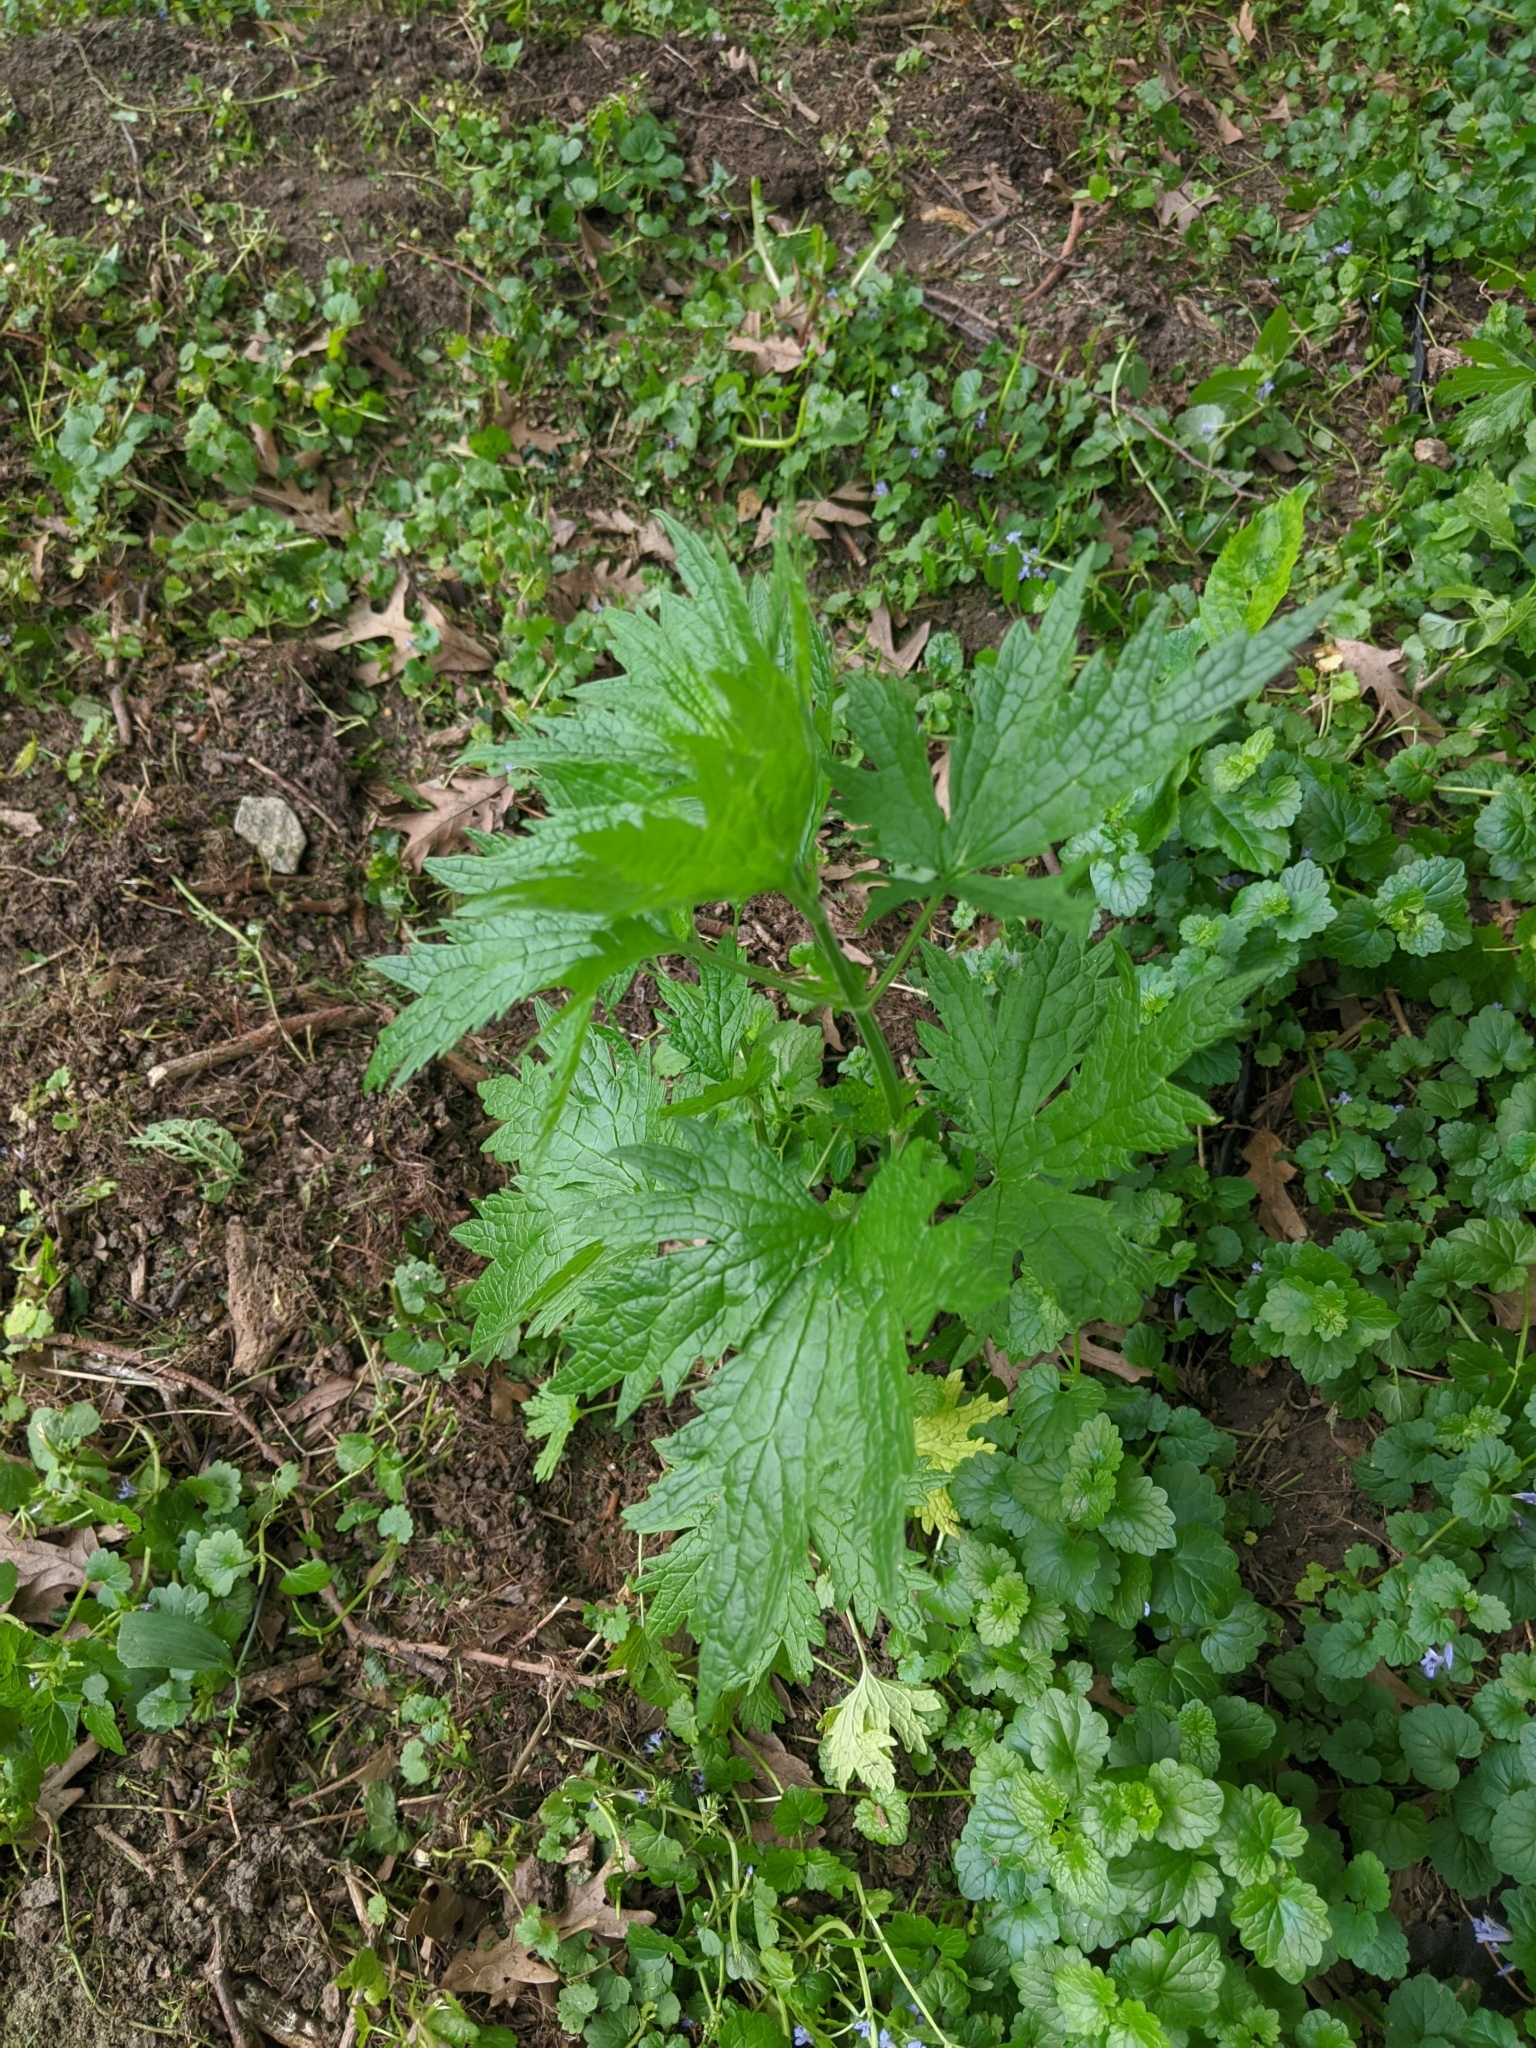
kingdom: Plantae
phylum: Tracheophyta
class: Magnoliopsida
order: Lamiales
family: Lamiaceae
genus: Leonurus
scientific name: Leonurus cardiaca
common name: Motherwort
